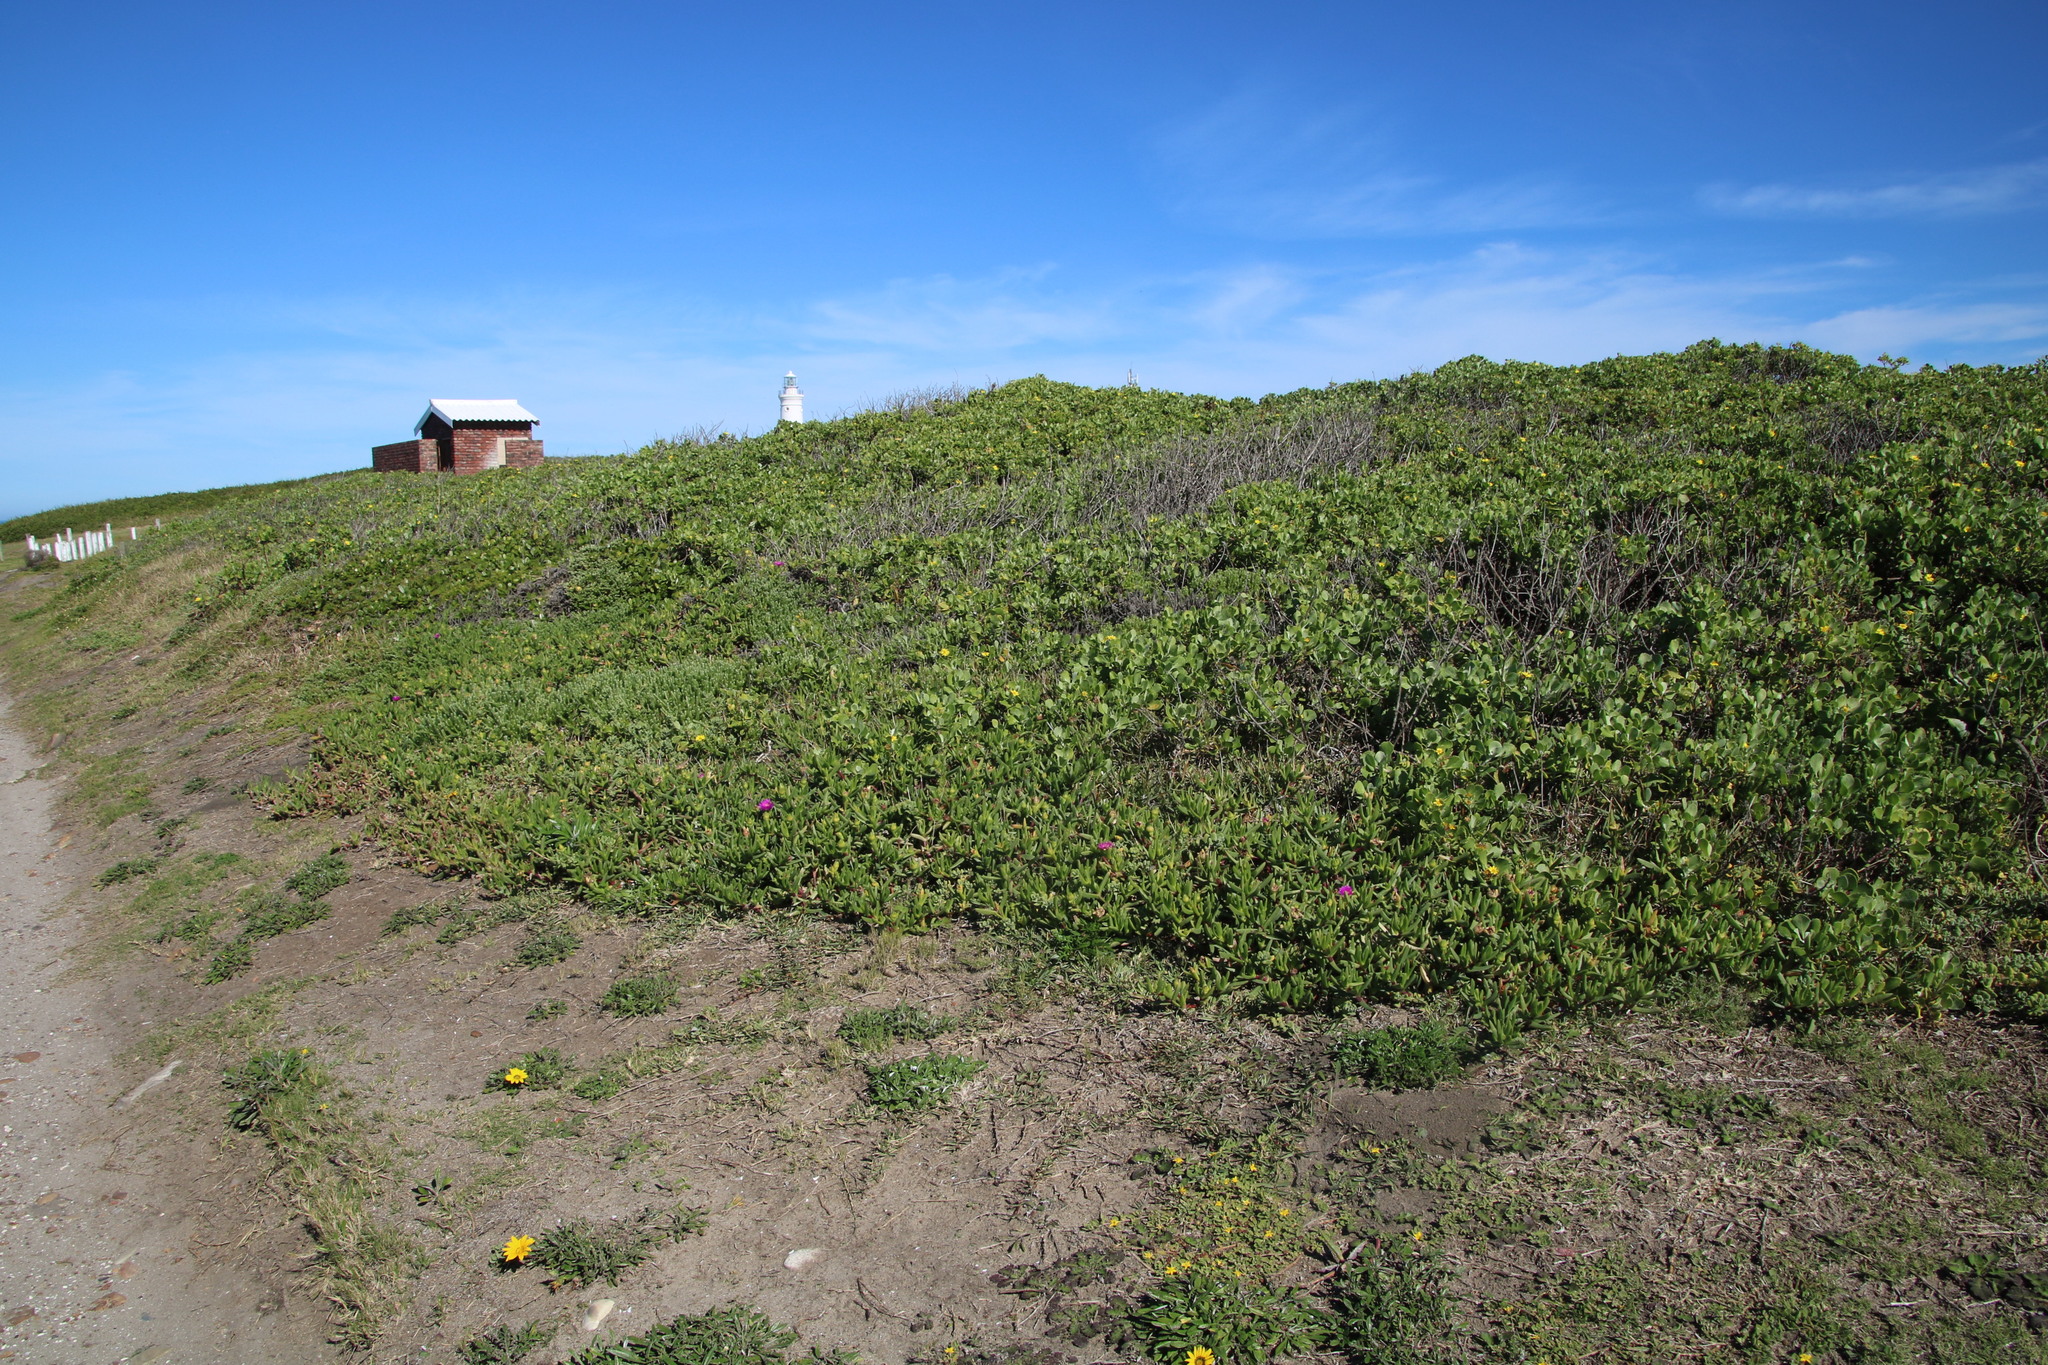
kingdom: Plantae
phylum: Tracheophyta
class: Magnoliopsida
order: Asterales
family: Asteraceae
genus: Osteospermum
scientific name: Osteospermum moniliferum
